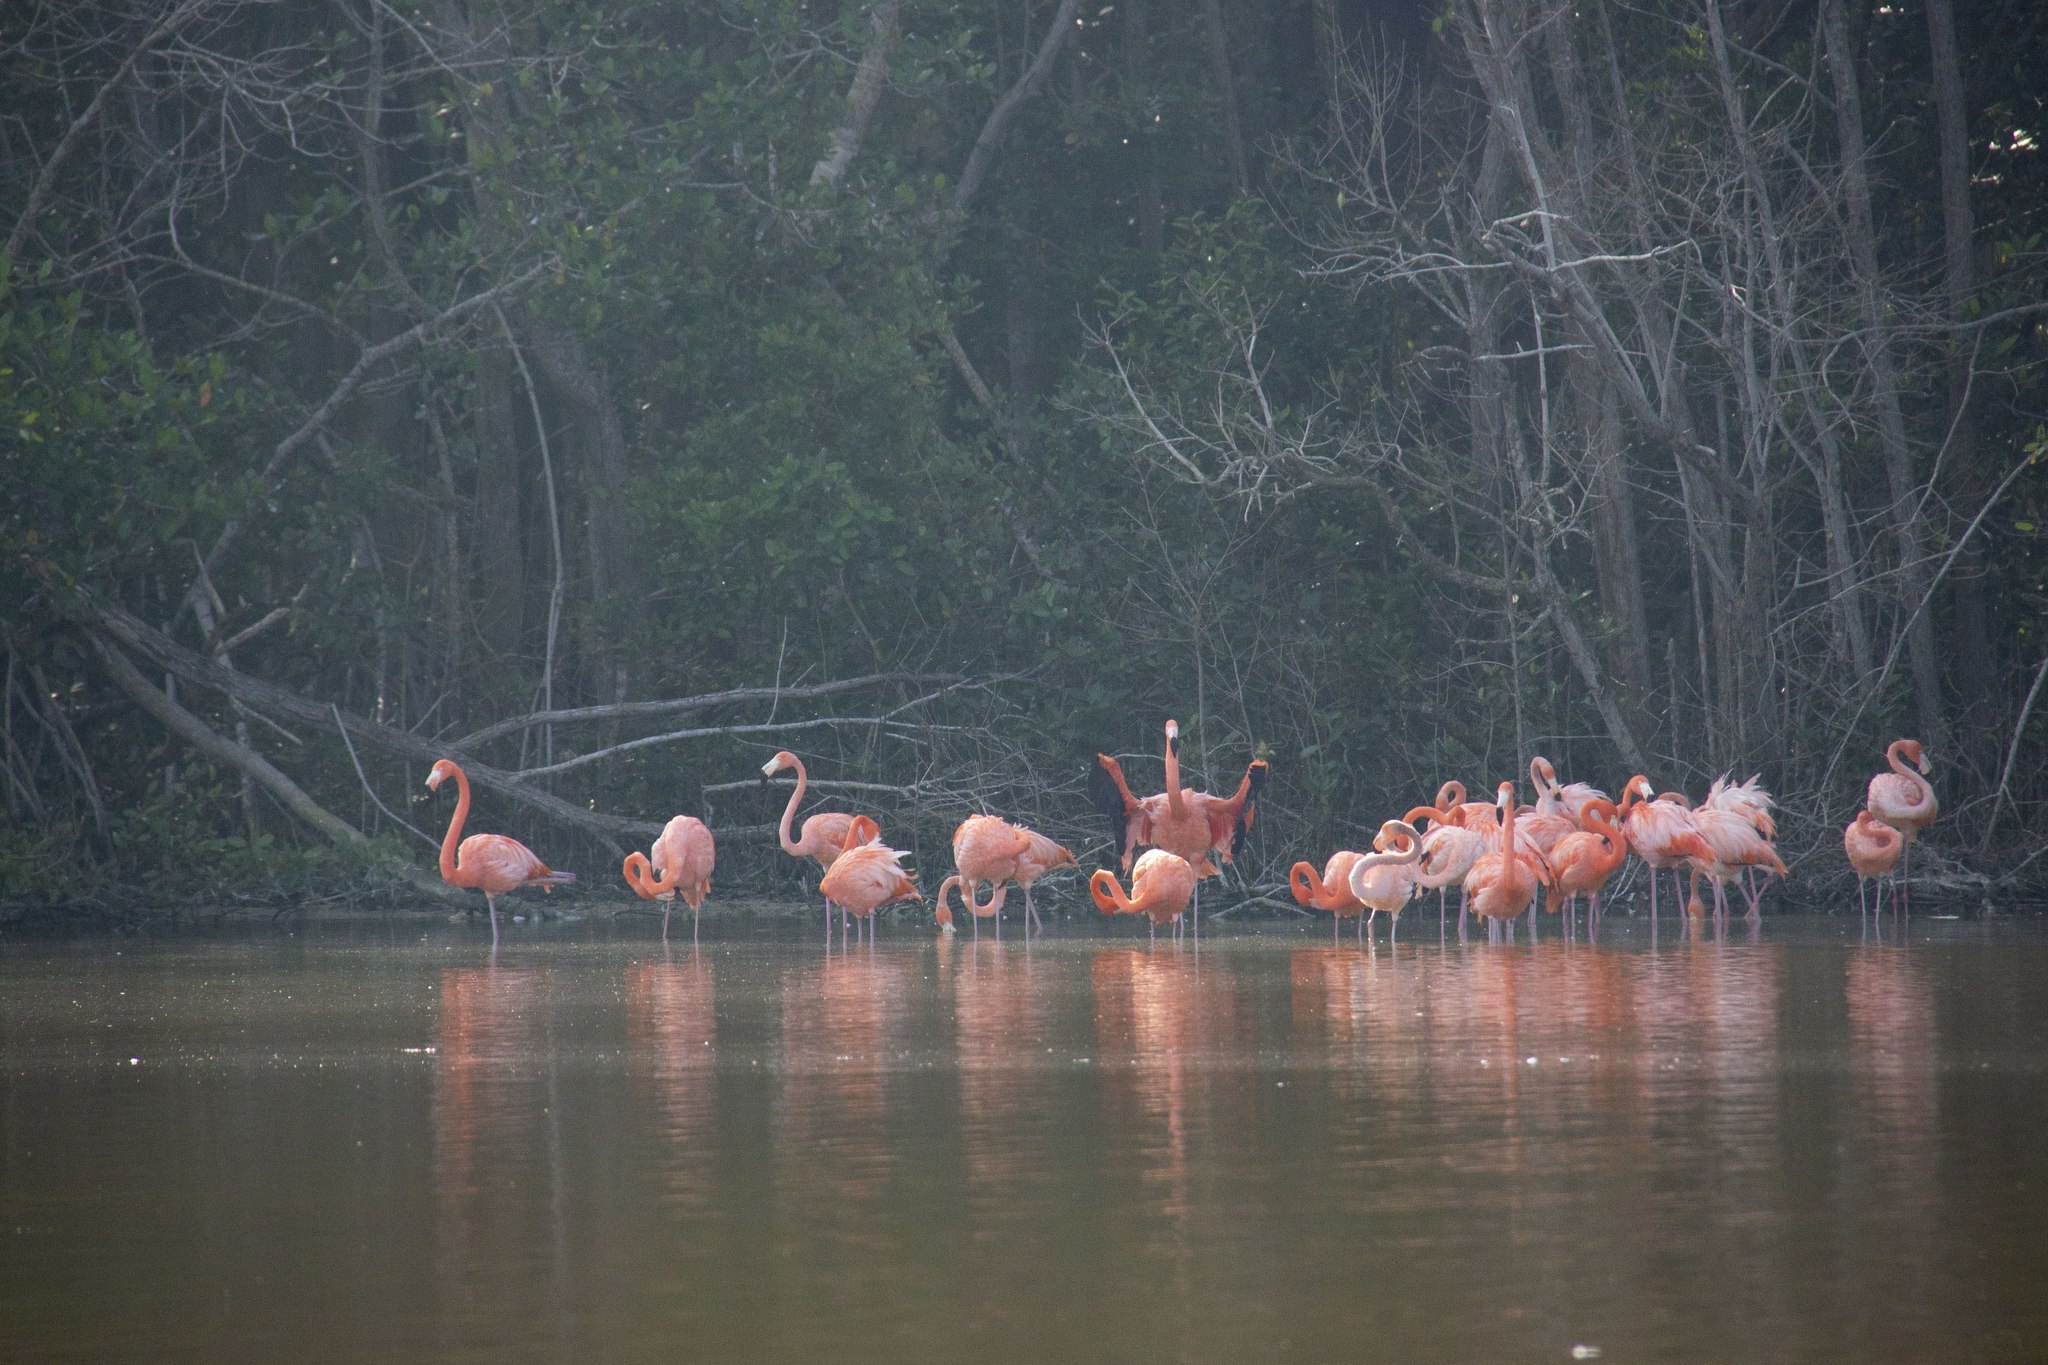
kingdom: Animalia
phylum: Chordata
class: Aves
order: Phoenicopteriformes
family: Phoenicopteridae
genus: Phoenicopterus
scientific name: Phoenicopterus ruber
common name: American flamingo
